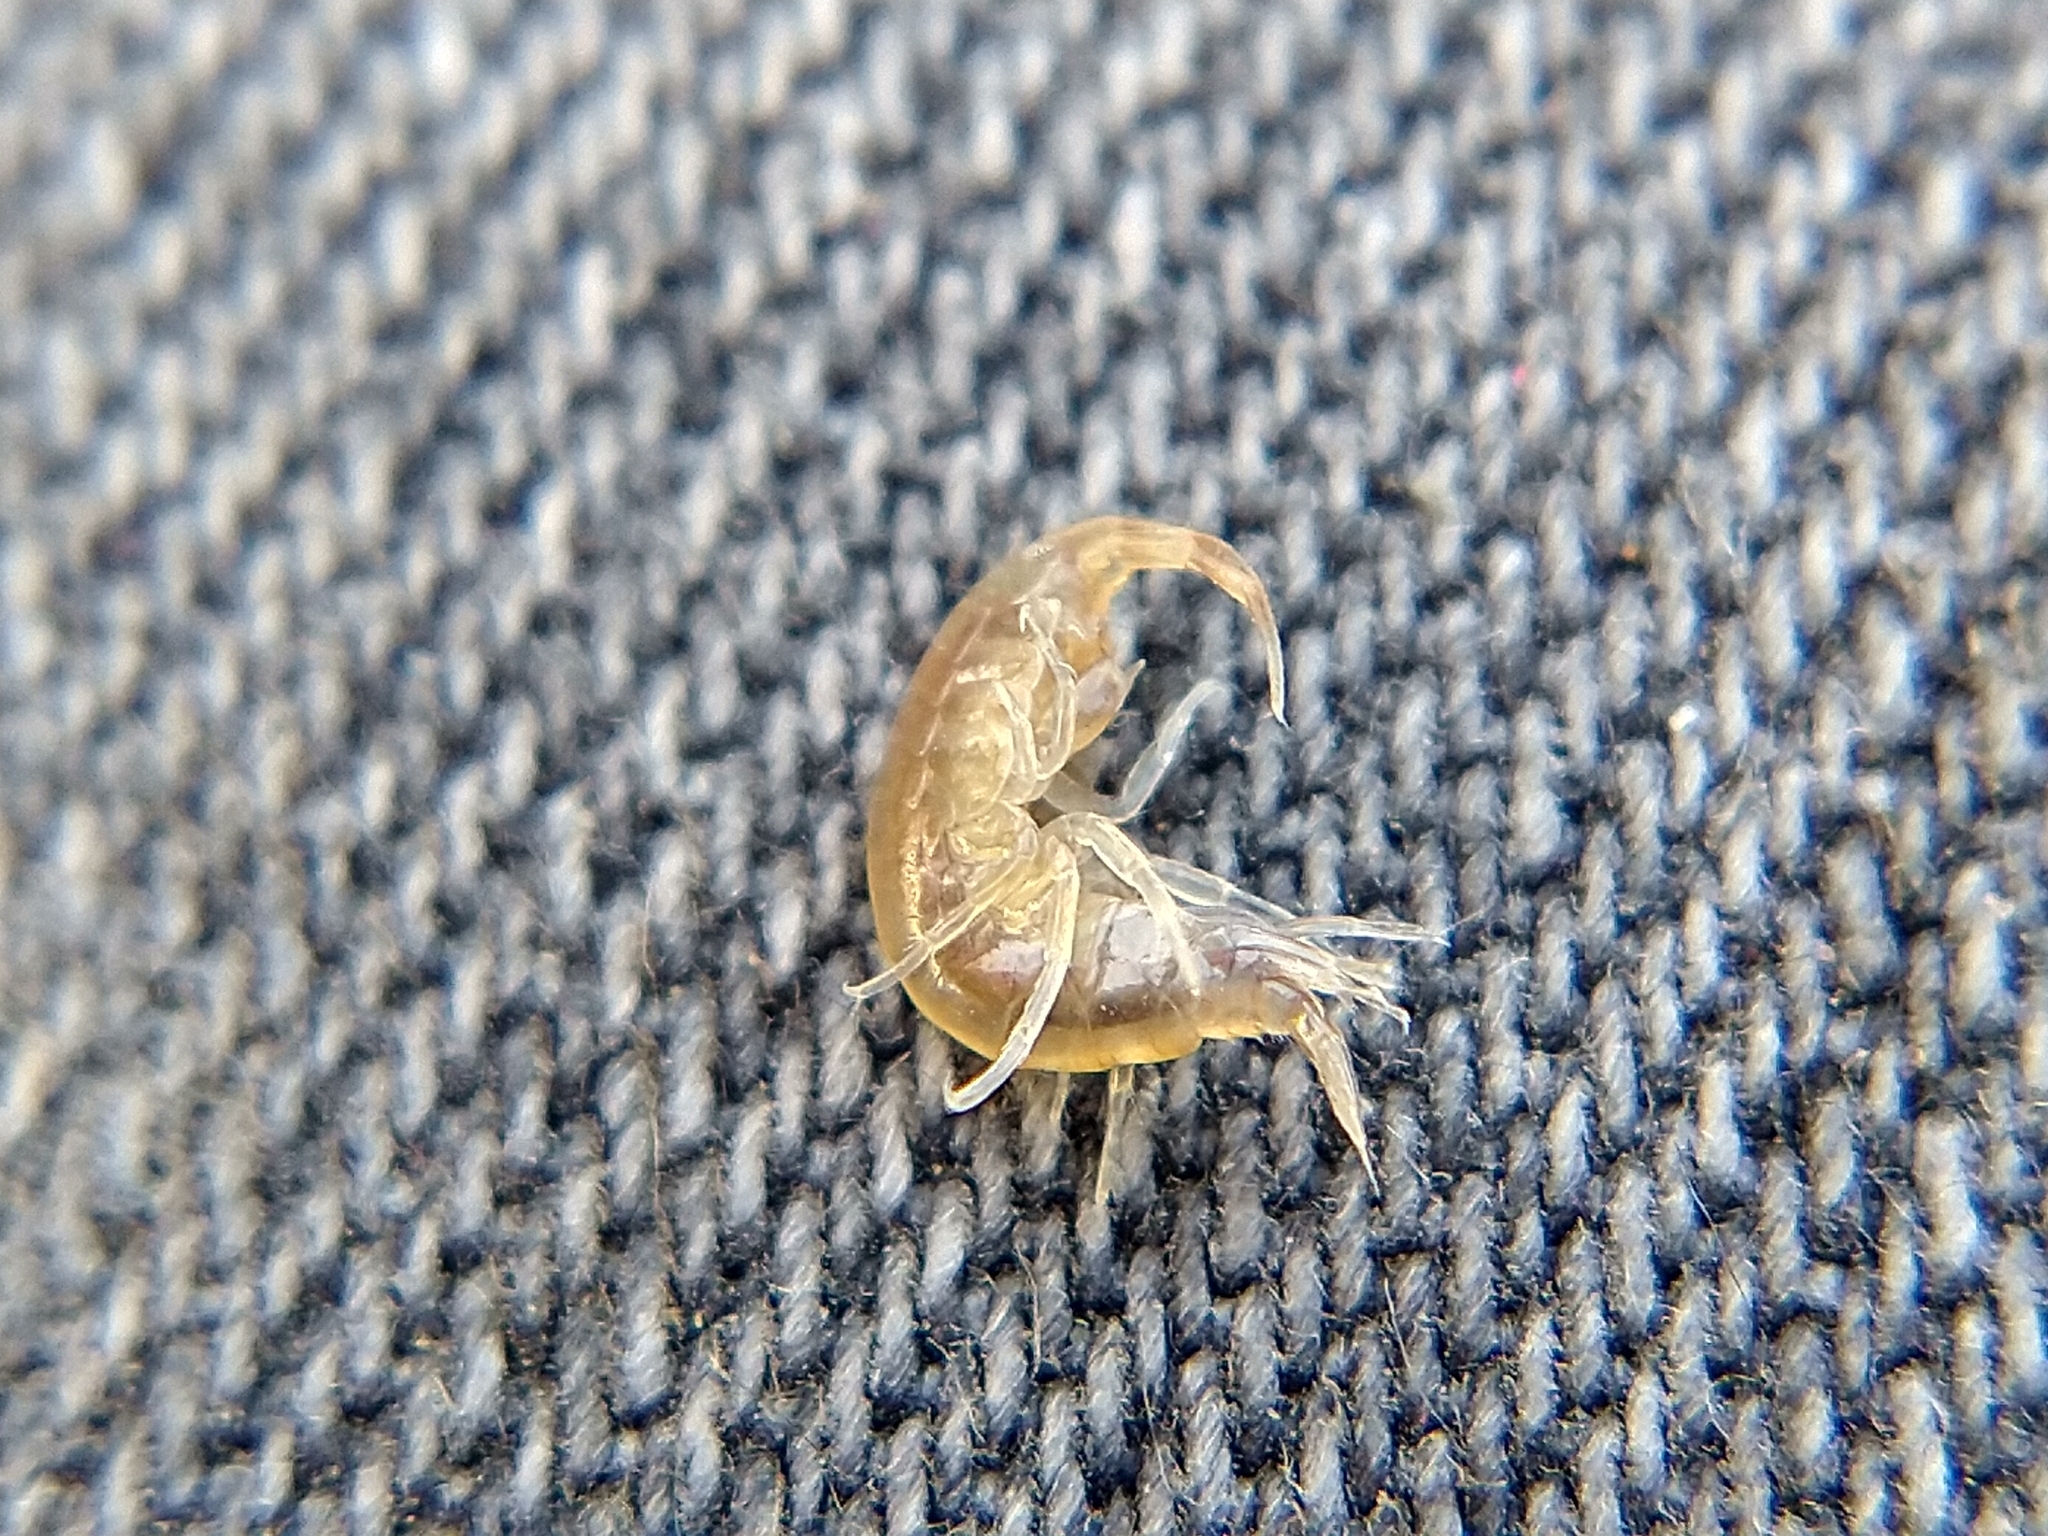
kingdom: Animalia
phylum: Arthropoda
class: Malacostraca
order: Amphipoda
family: Gammaridae
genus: Gammarus
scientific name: Gammarus daiberi
